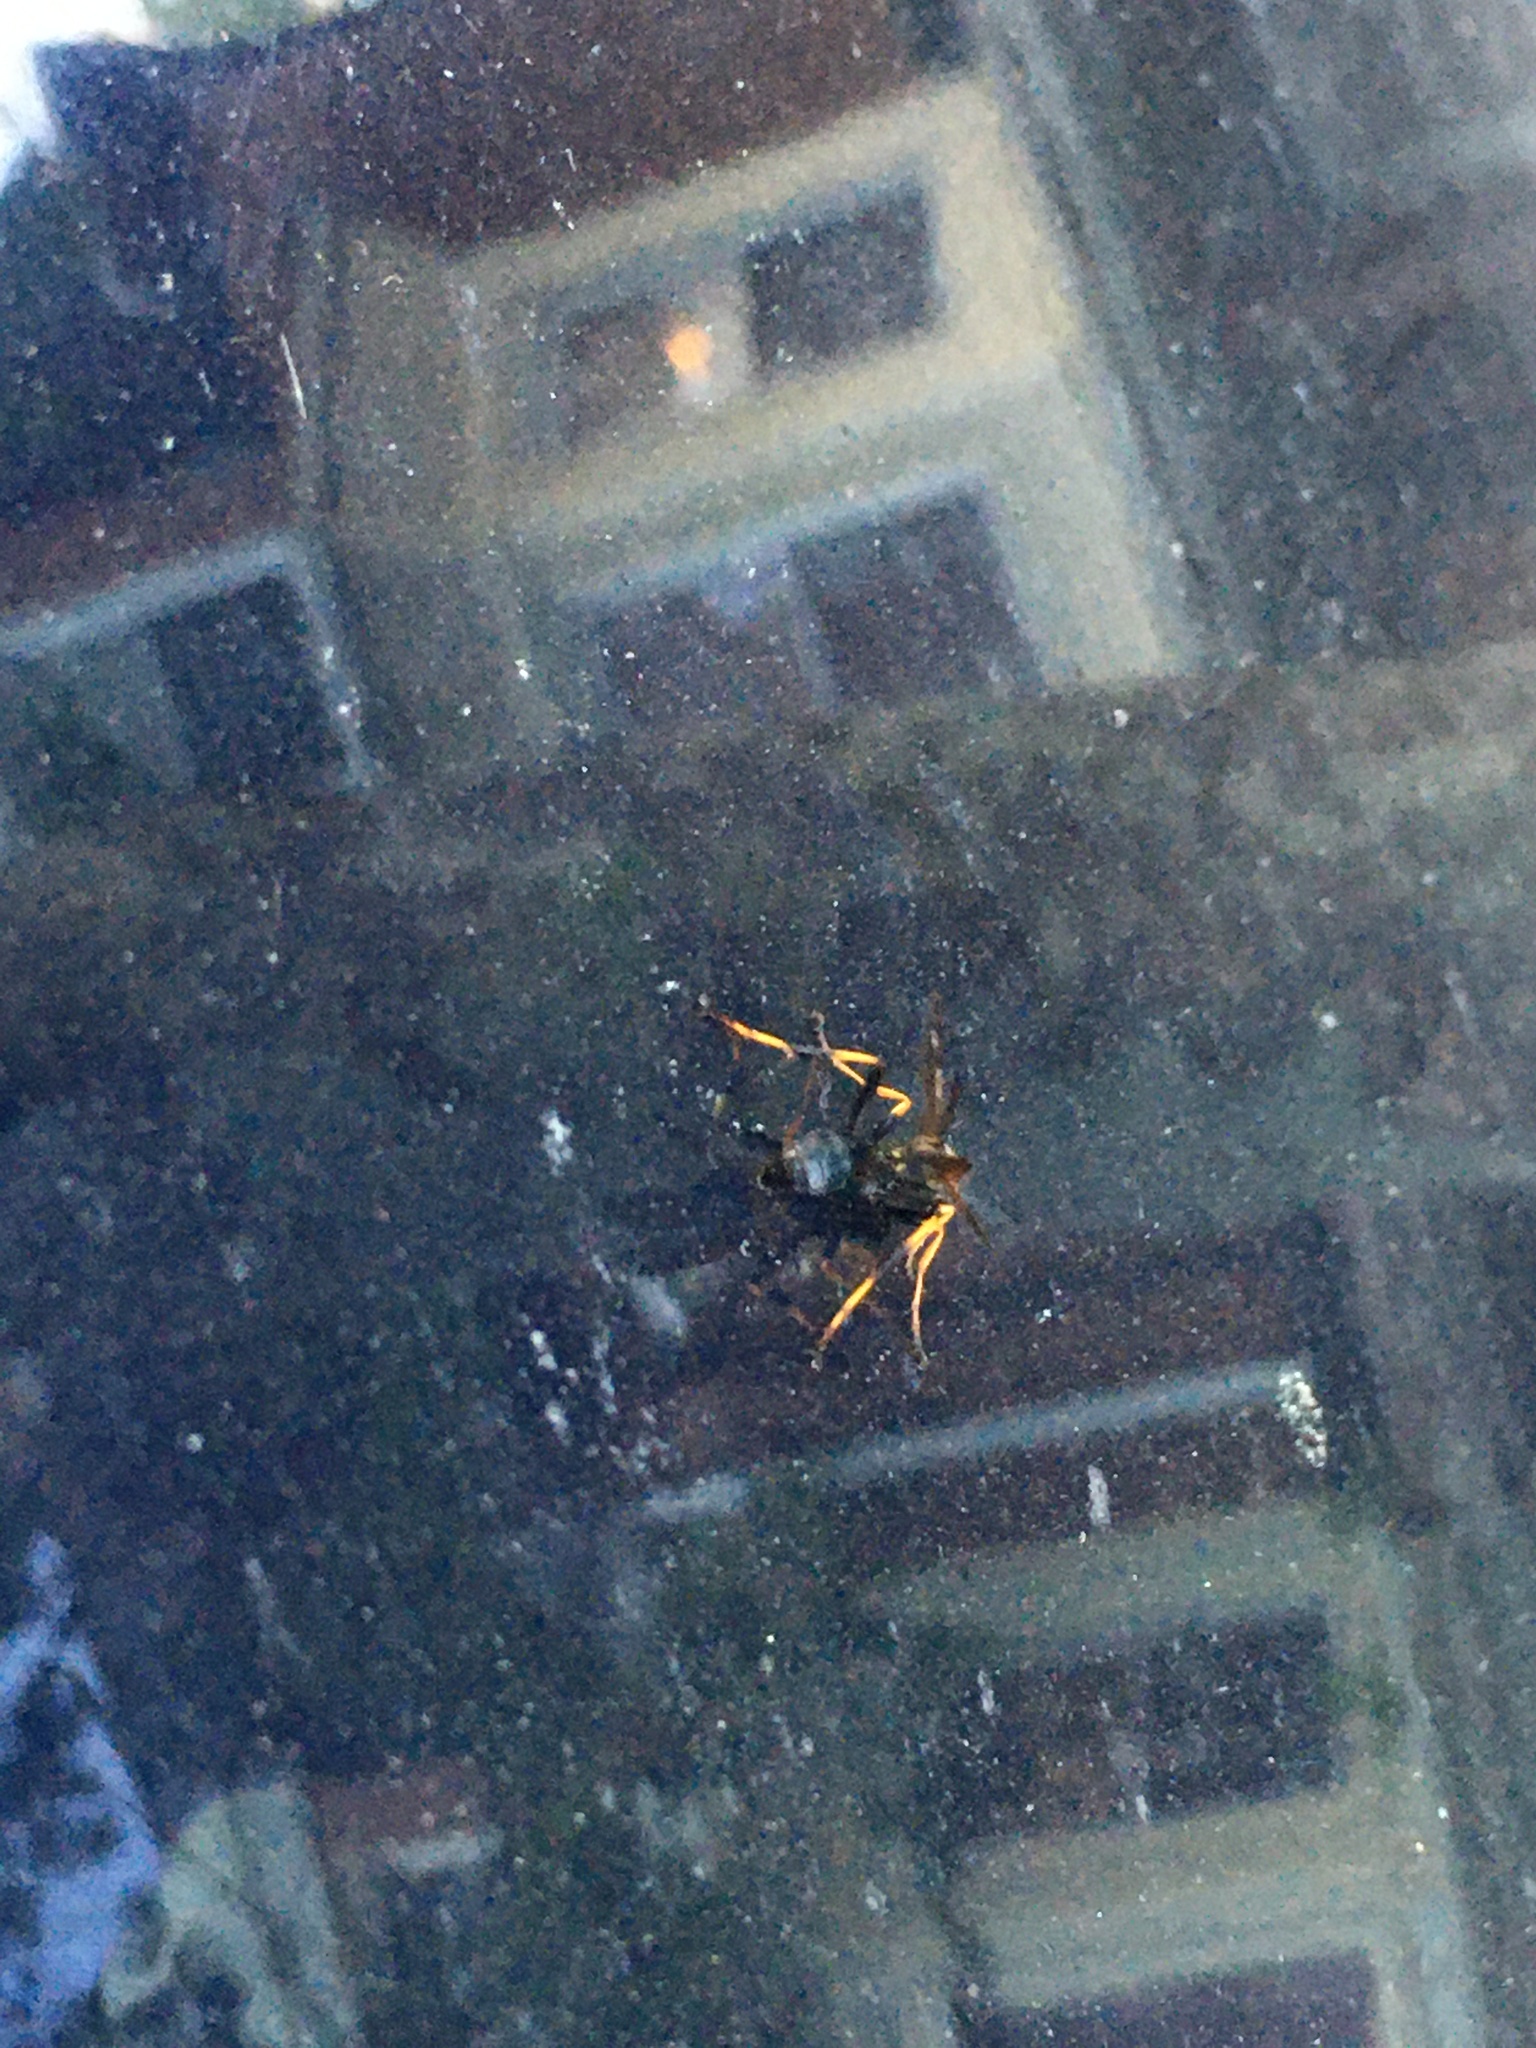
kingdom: Animalia
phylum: Arthropoda
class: Insecta
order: Hymenoptera
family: Sphecidae
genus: Sceliphron
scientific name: Sceliphron caementarium
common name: Mud dauber
